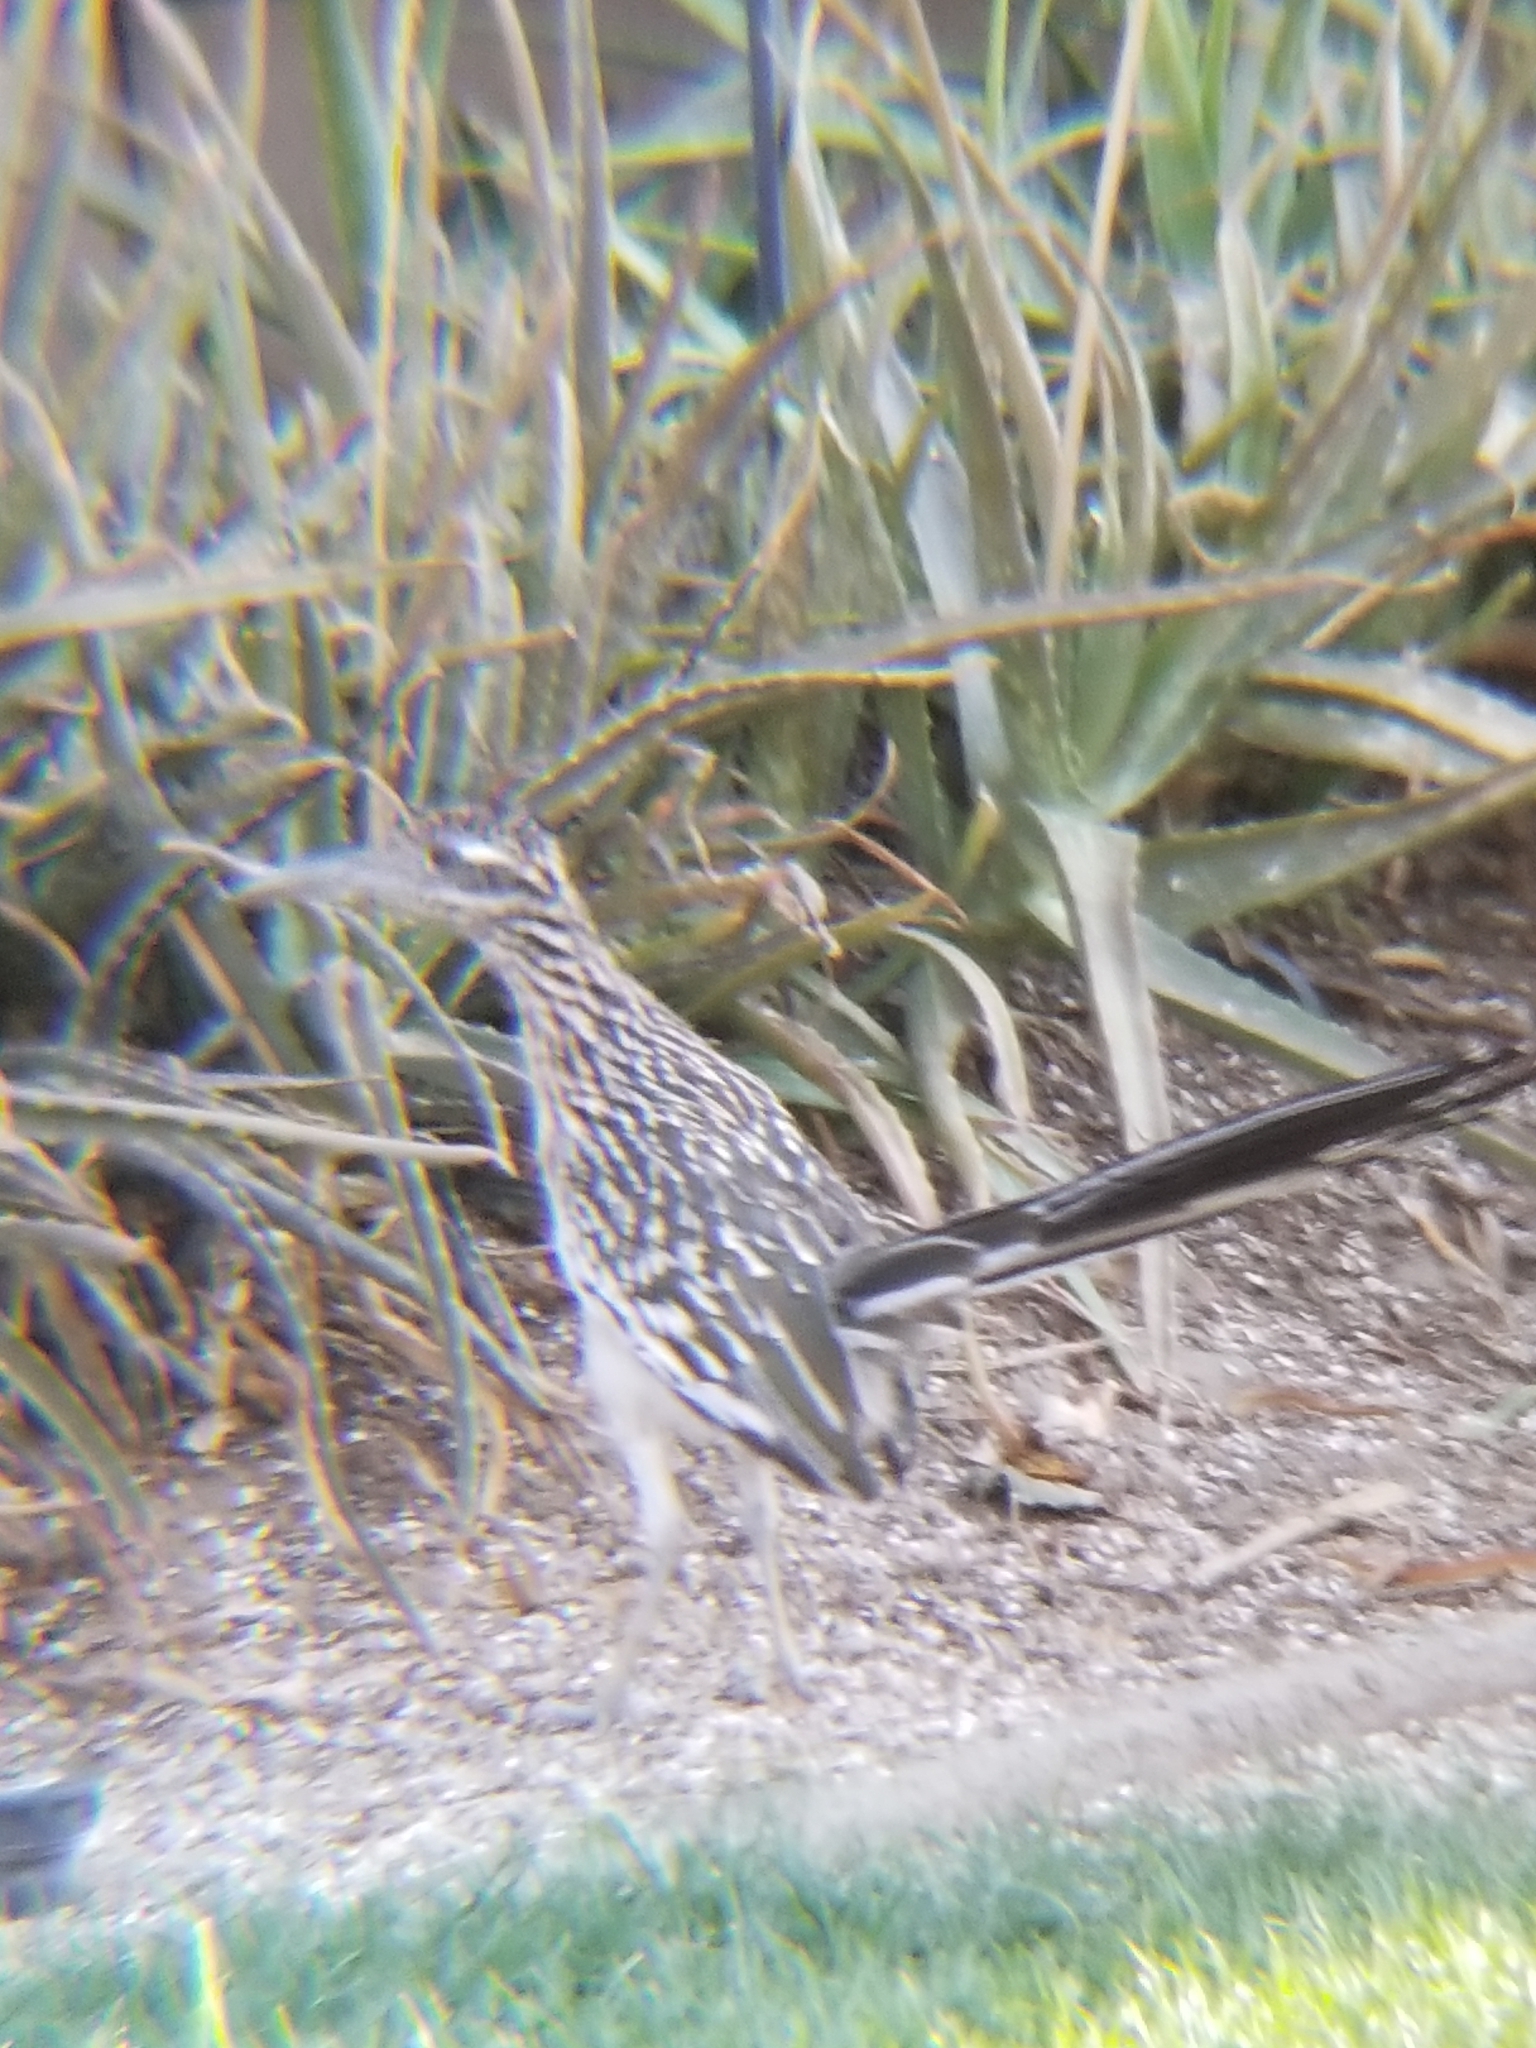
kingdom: Animalia
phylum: Chordata
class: Aves
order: Cuculiformes
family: Cuculidae
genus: Geococcyx
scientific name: Geococcyx californianus
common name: Greater roadrunner
